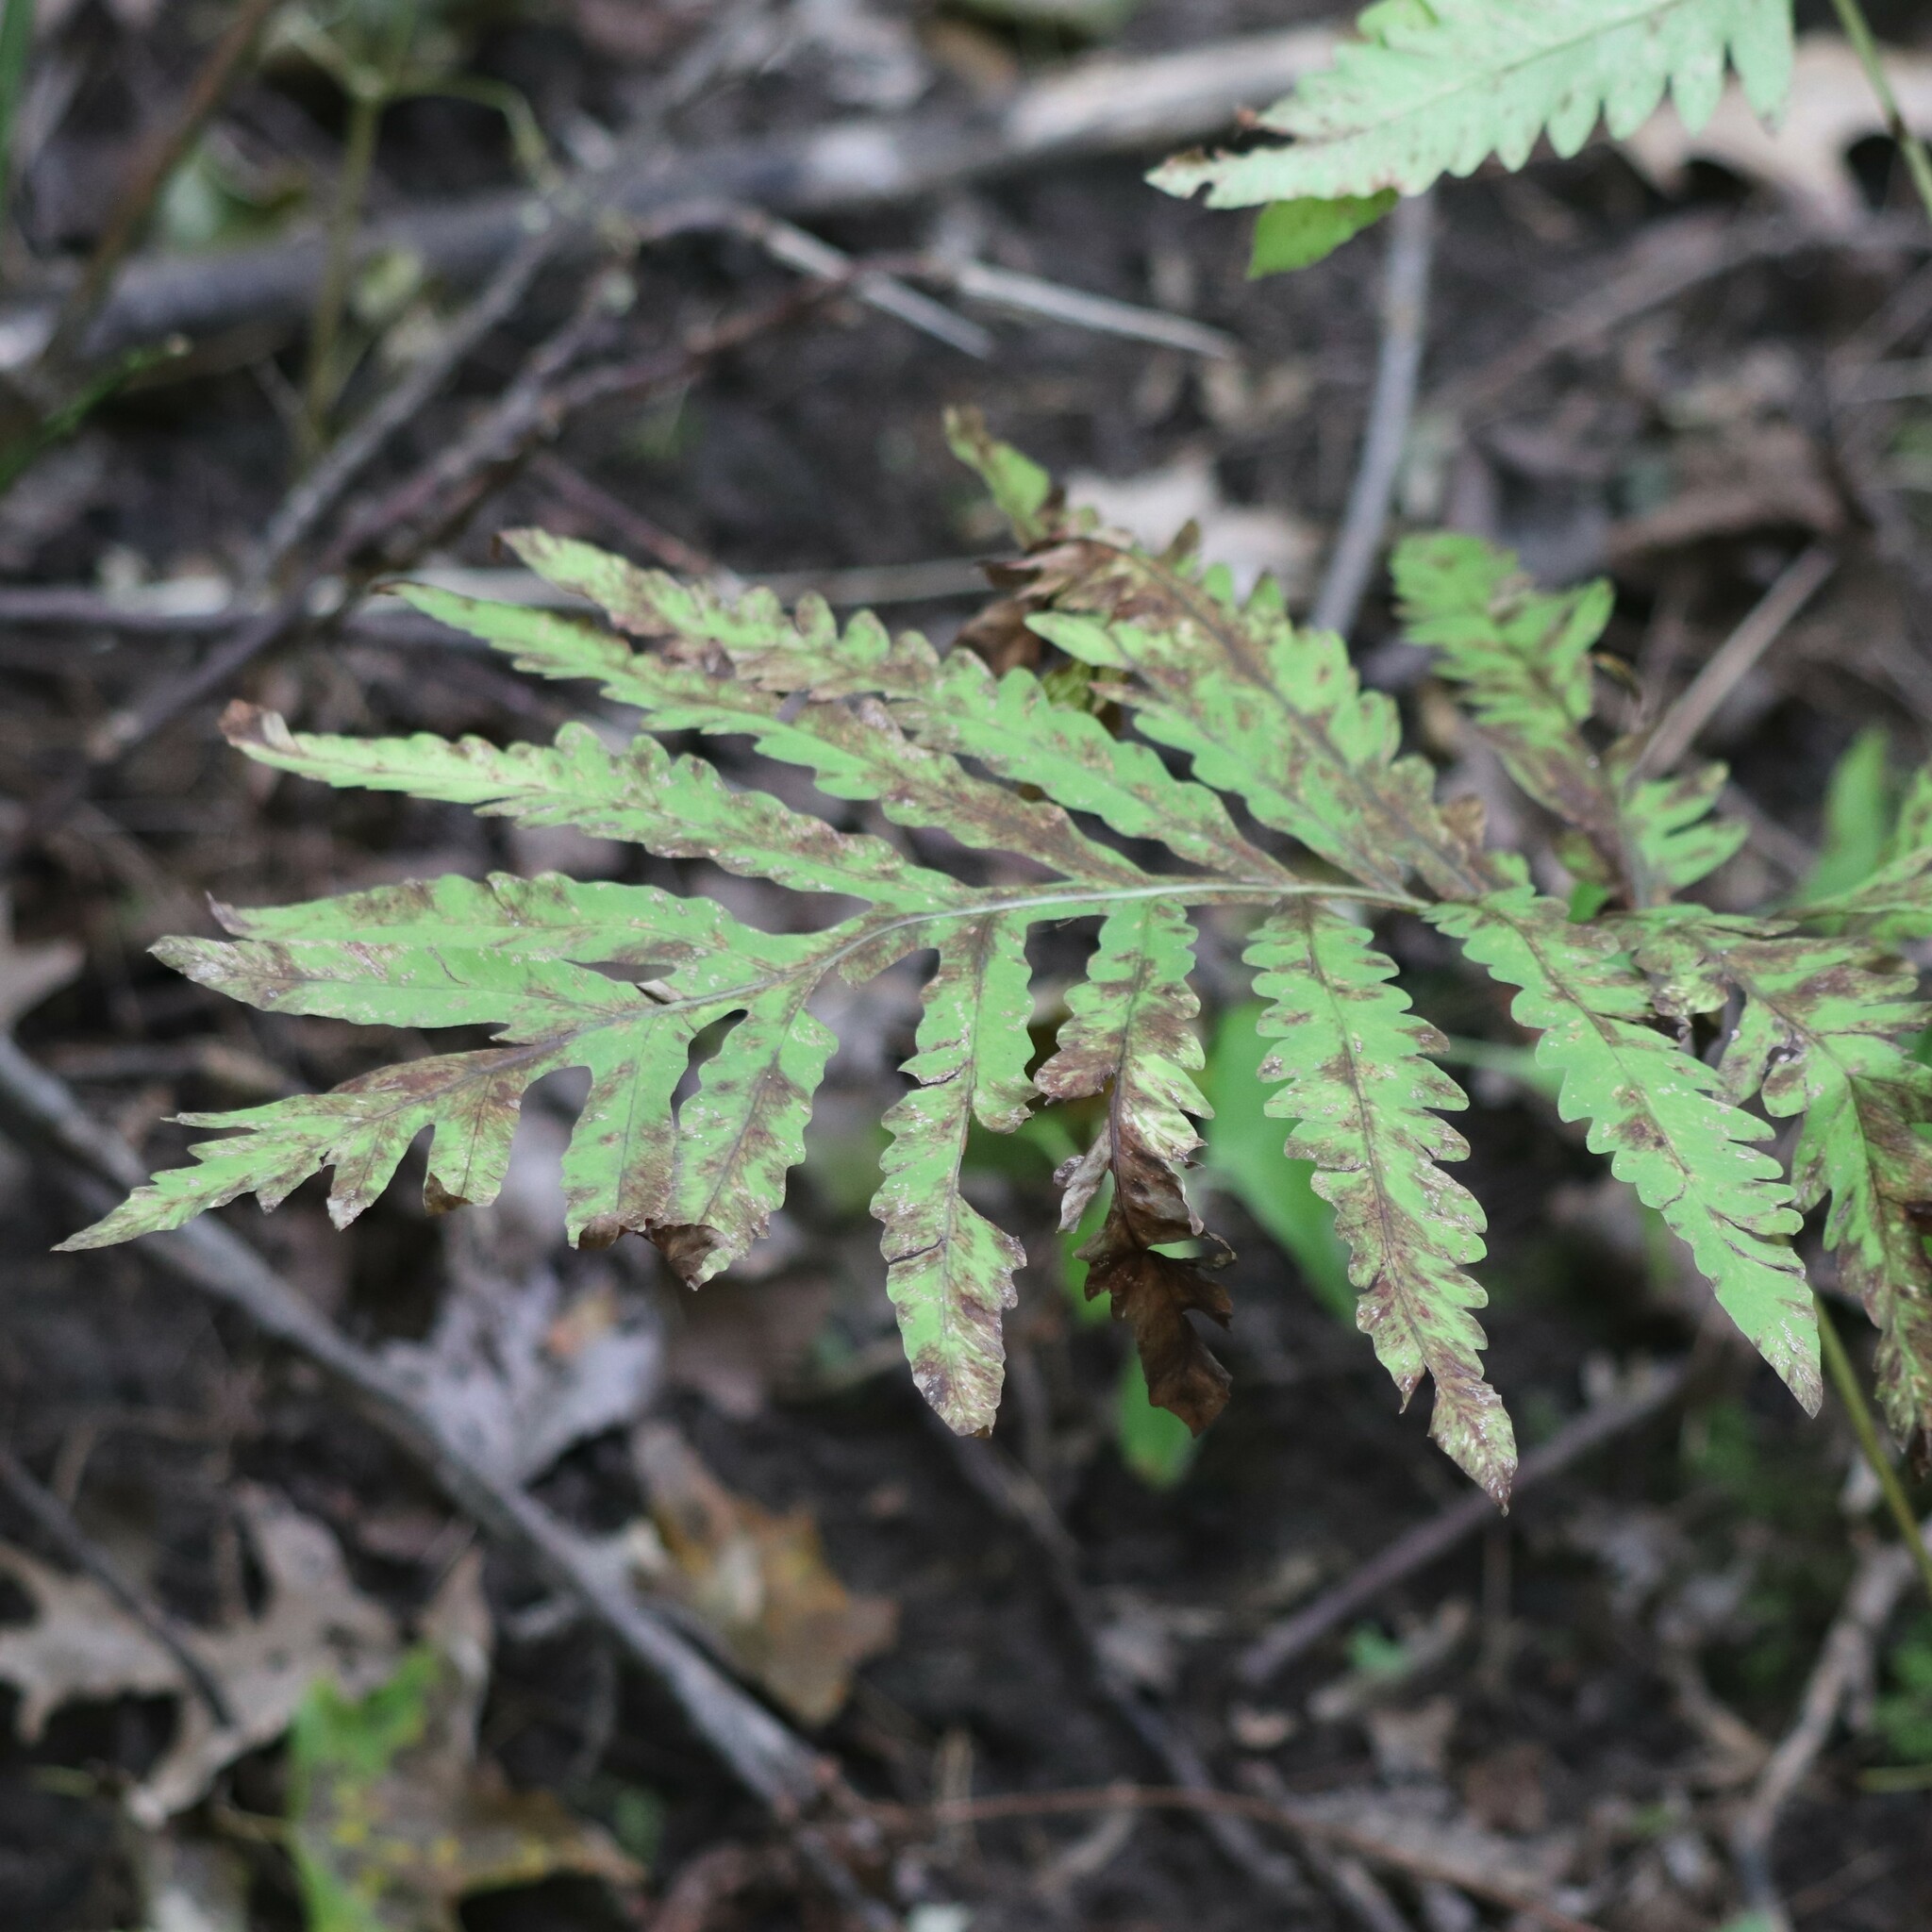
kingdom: Plantae
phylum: Tracheophyta
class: Polypodiopsida
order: Polypodiales
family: Onocleaceae
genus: Onoclea
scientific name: Onoclea sensibilis
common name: Sensitive fern
